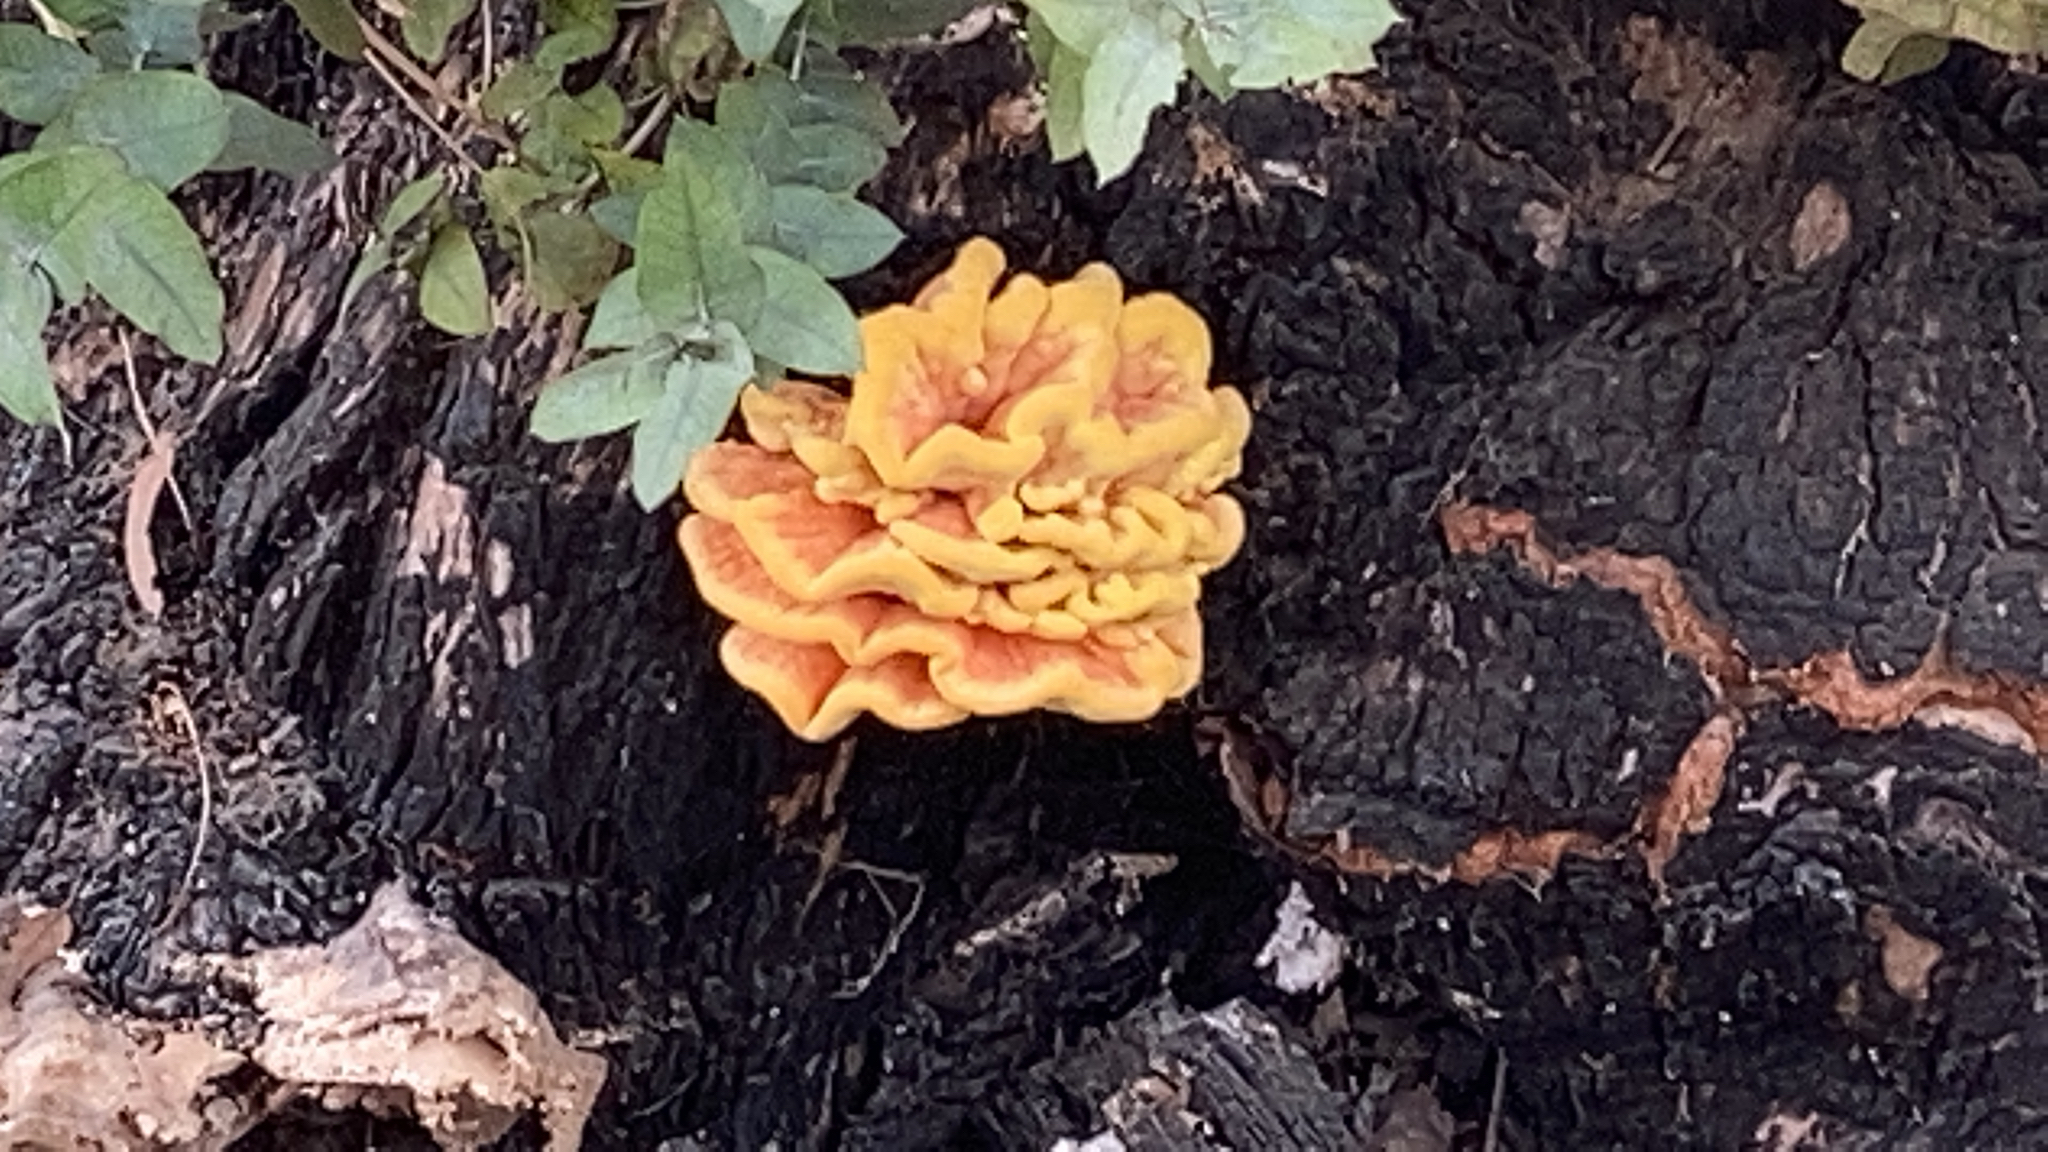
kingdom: Fungi
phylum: Basidiomycota
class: Agaricomycetes
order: Polyporales
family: Laetiporaceae
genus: Laetiporus
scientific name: Laetiporus gilbertsonii
